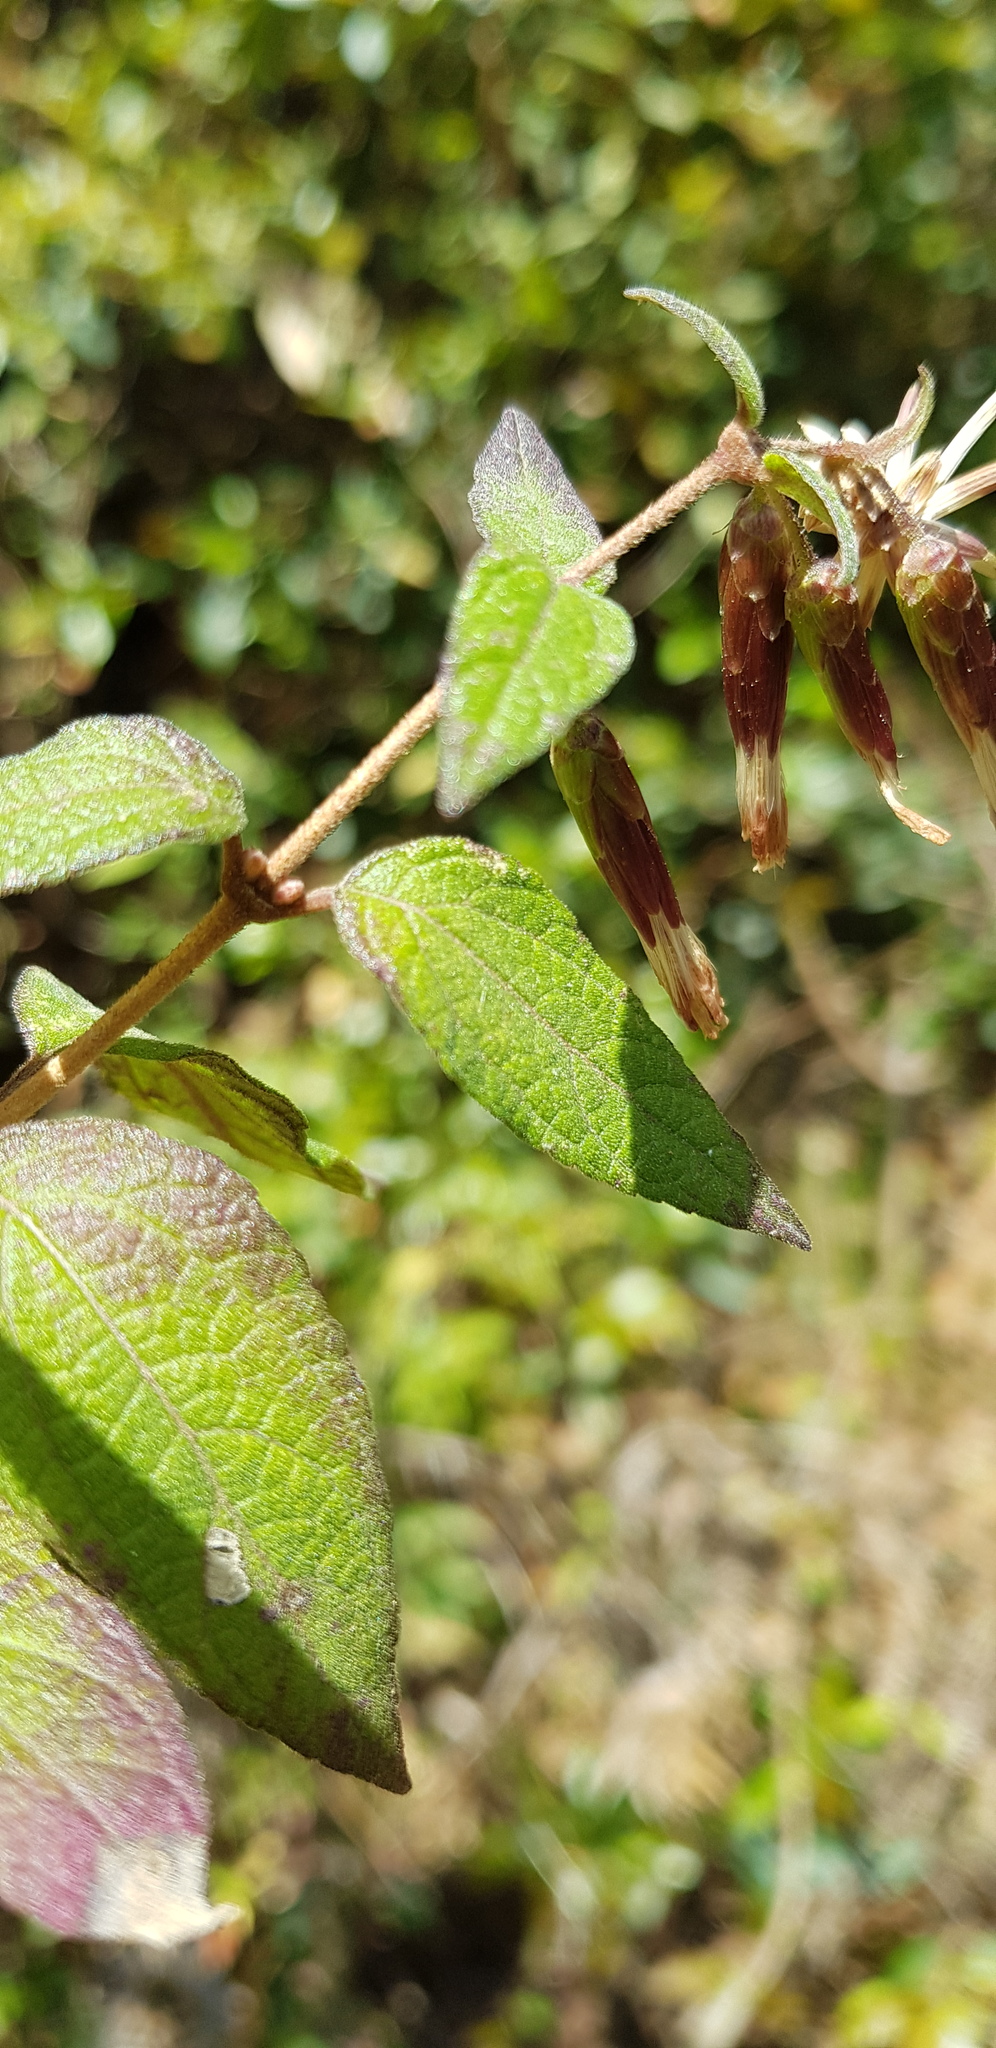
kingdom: Plantae
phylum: Tracheophyta
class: Magnoliopsida
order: Asterales
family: Asteraceae
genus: Brickellia
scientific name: Brickellia pendula
